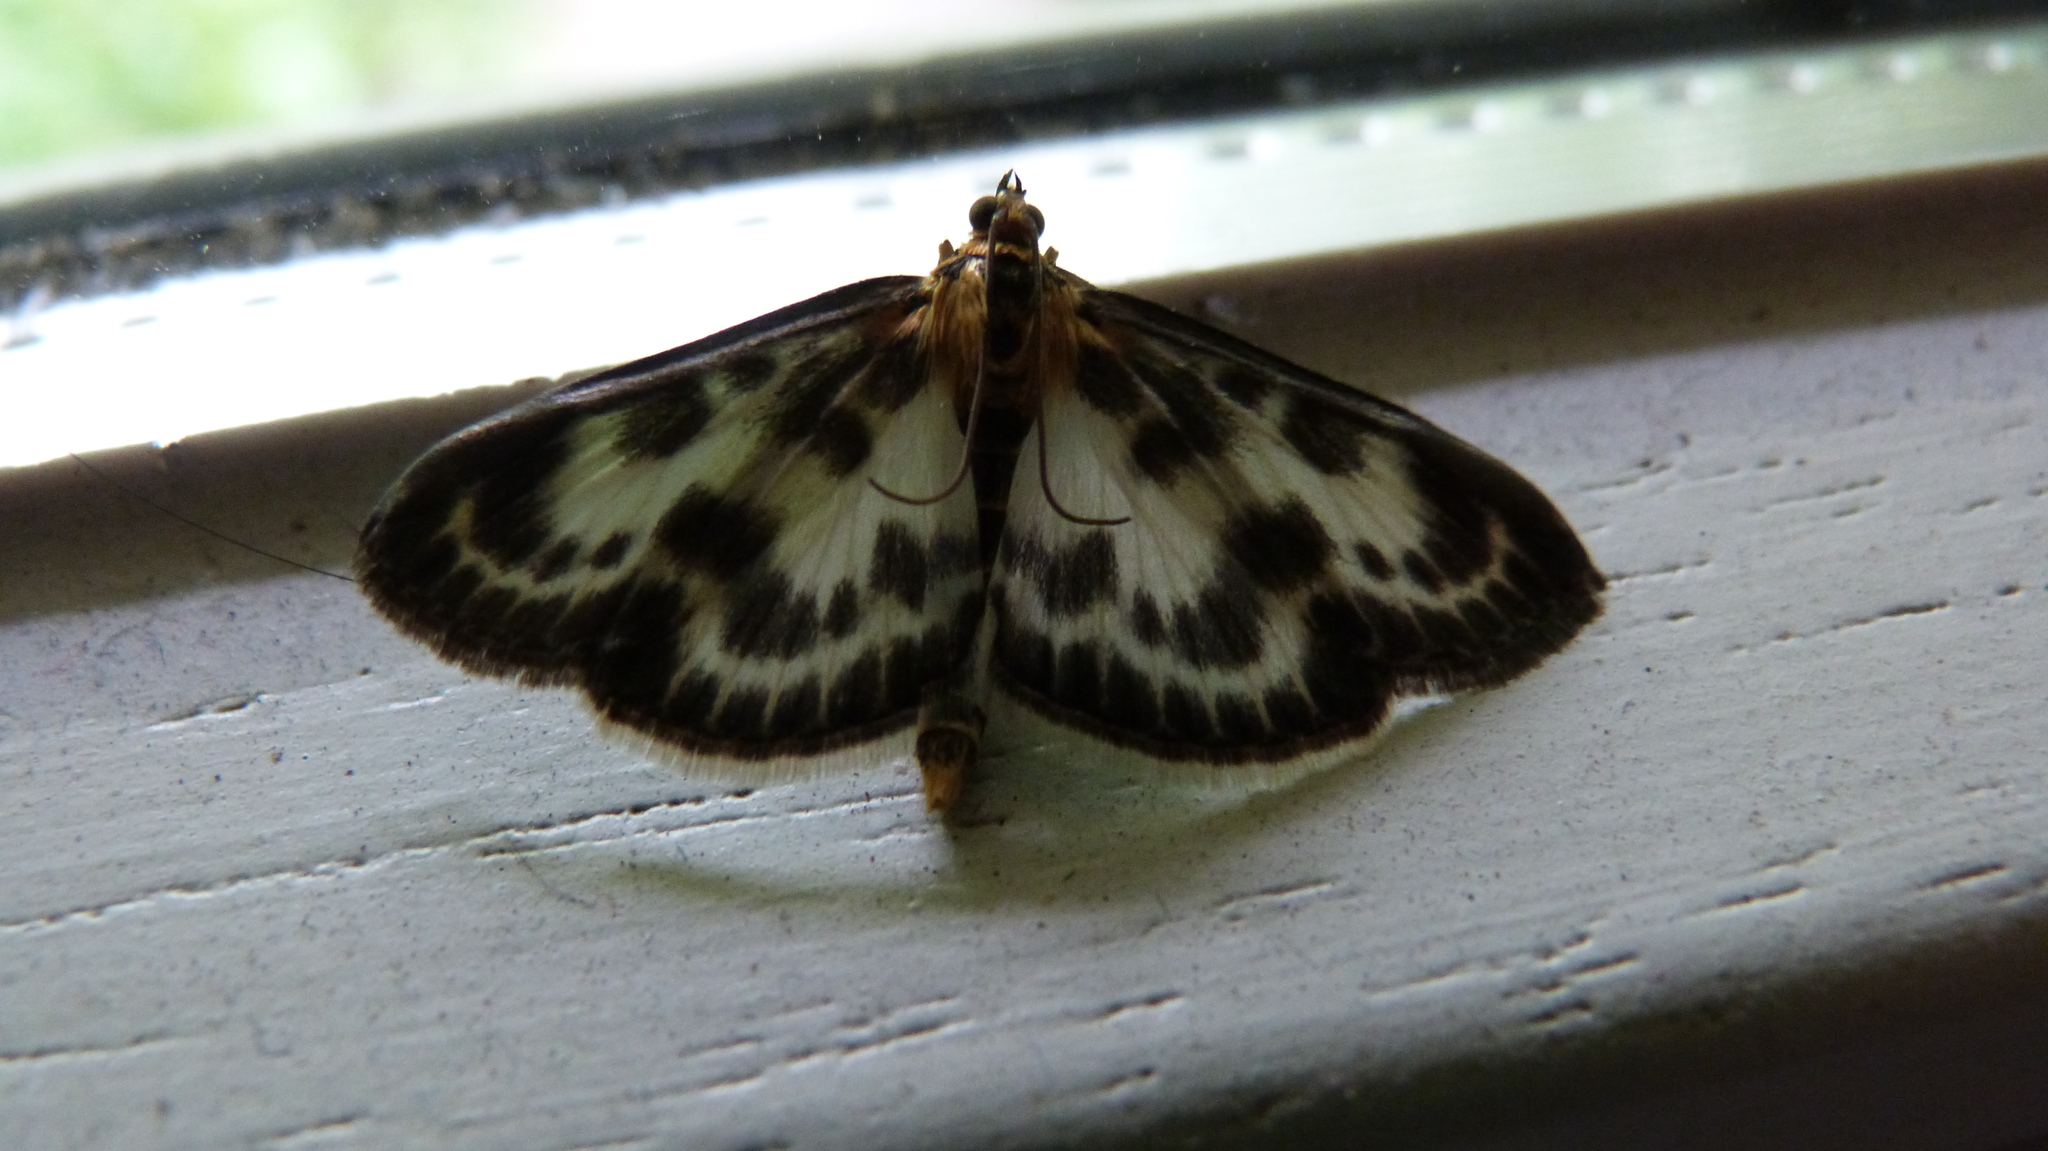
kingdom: Animalia
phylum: Arthropoda
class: Insecta
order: Lepidoptera
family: Crambidae
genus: Anania
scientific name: Anania hortulata
